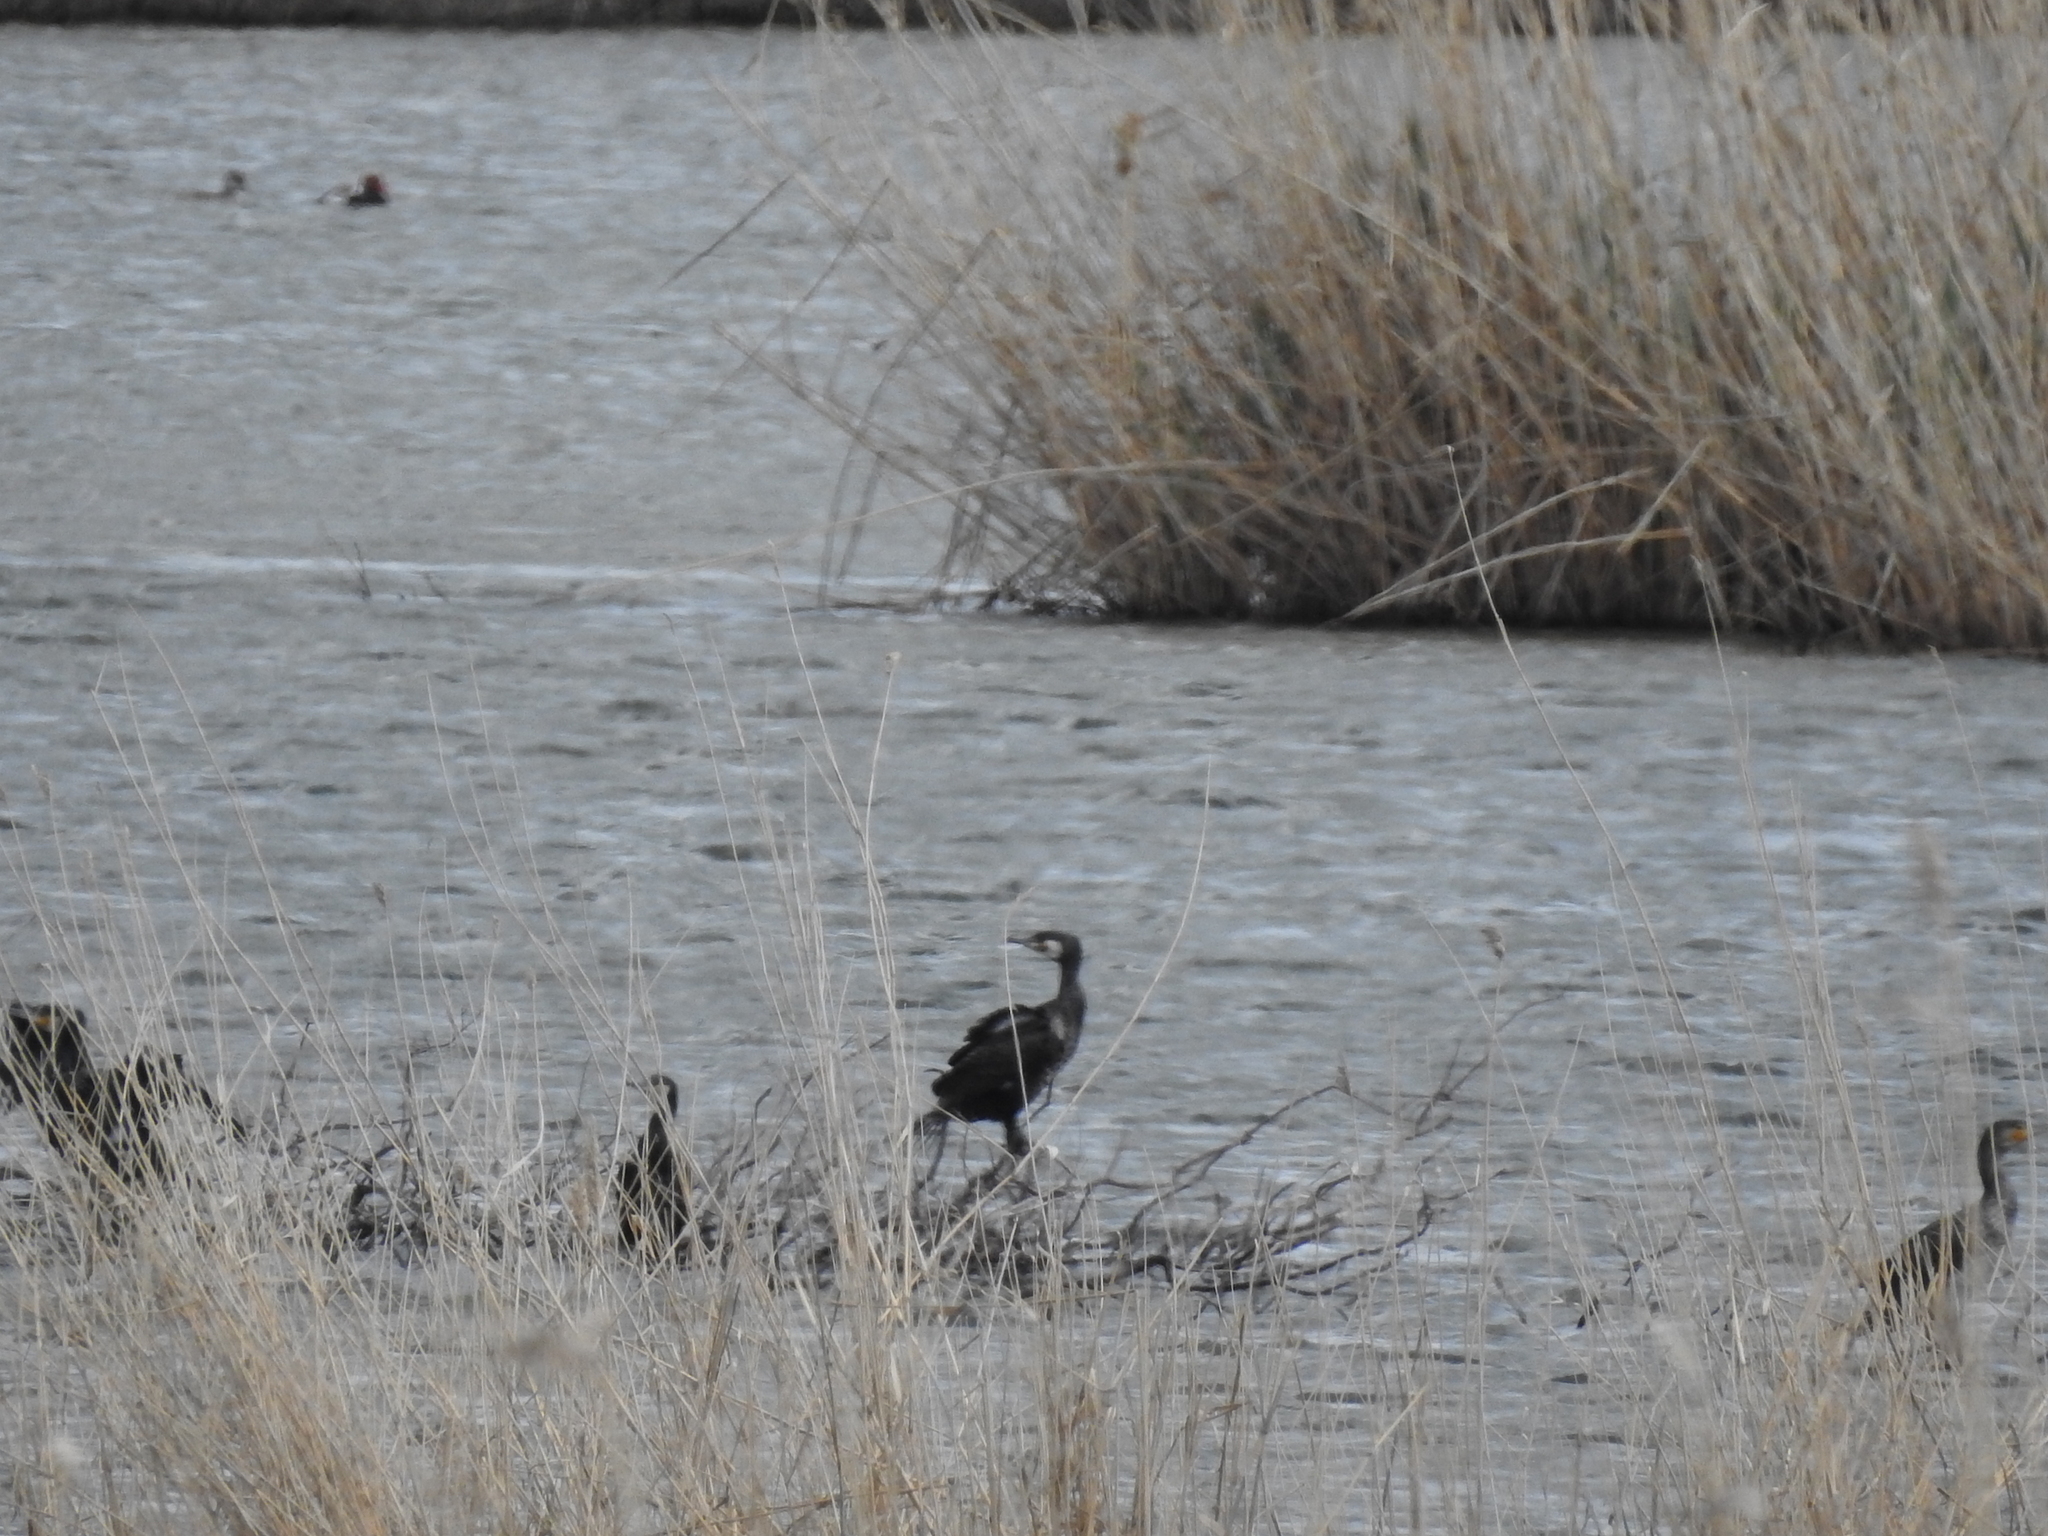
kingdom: Animalia
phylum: Chordata
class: Aves
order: Suliformes
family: Phalacrocoracidae
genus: Phalacrocorax
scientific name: Phalacrocorax carbo
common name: Great cormorant
